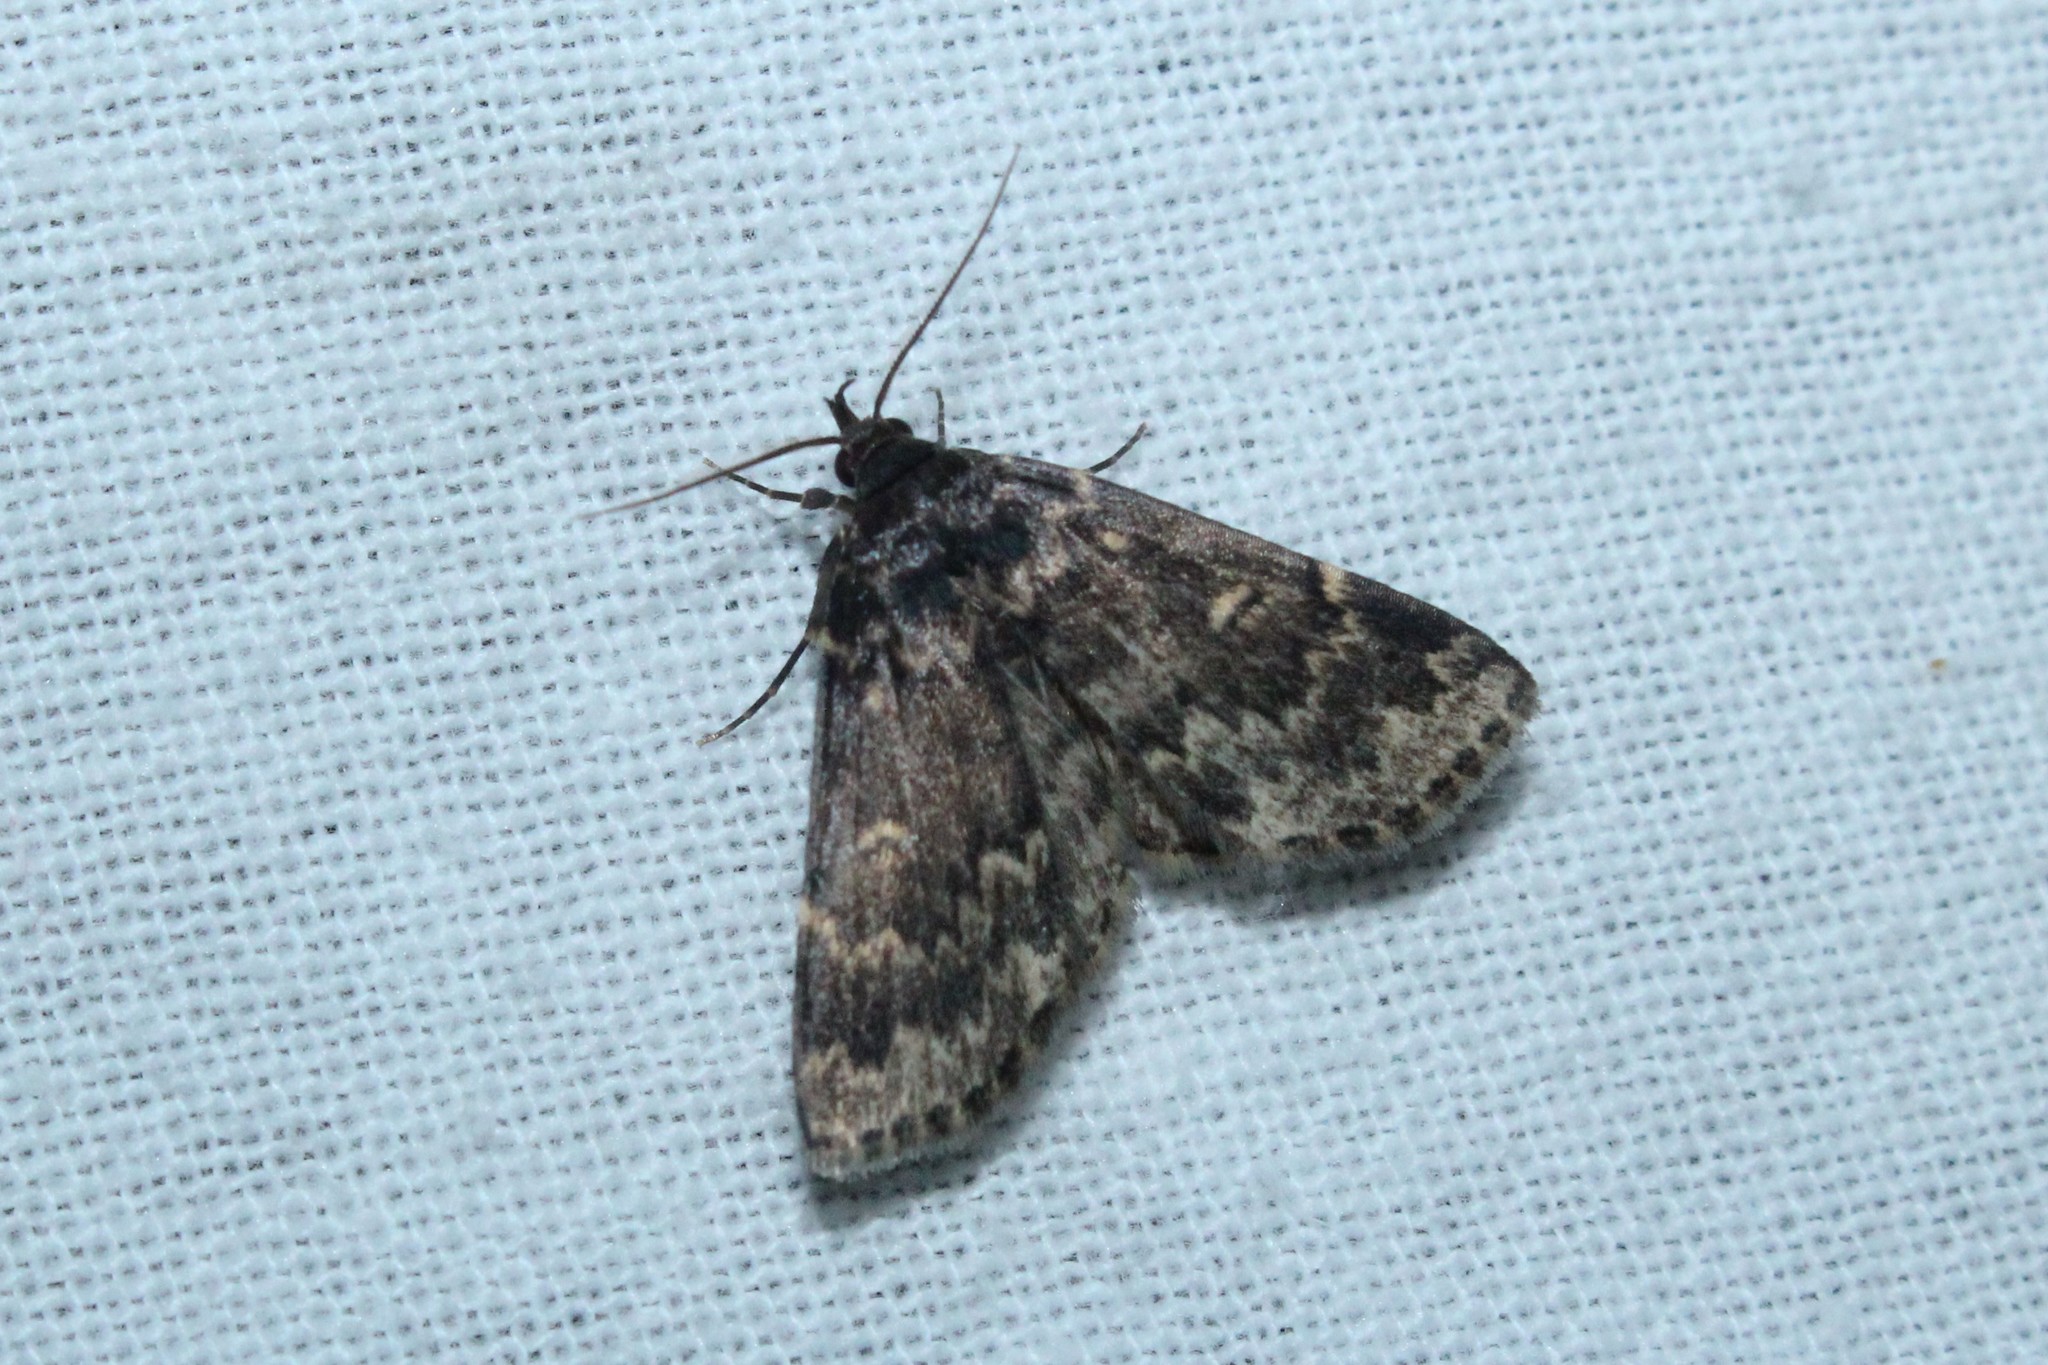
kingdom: Animalia
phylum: Arthropoda
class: Insecta
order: Lepidoptera
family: Erebidae
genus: Idia
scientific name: Idia lubricalis
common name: Twin-striped tabby
